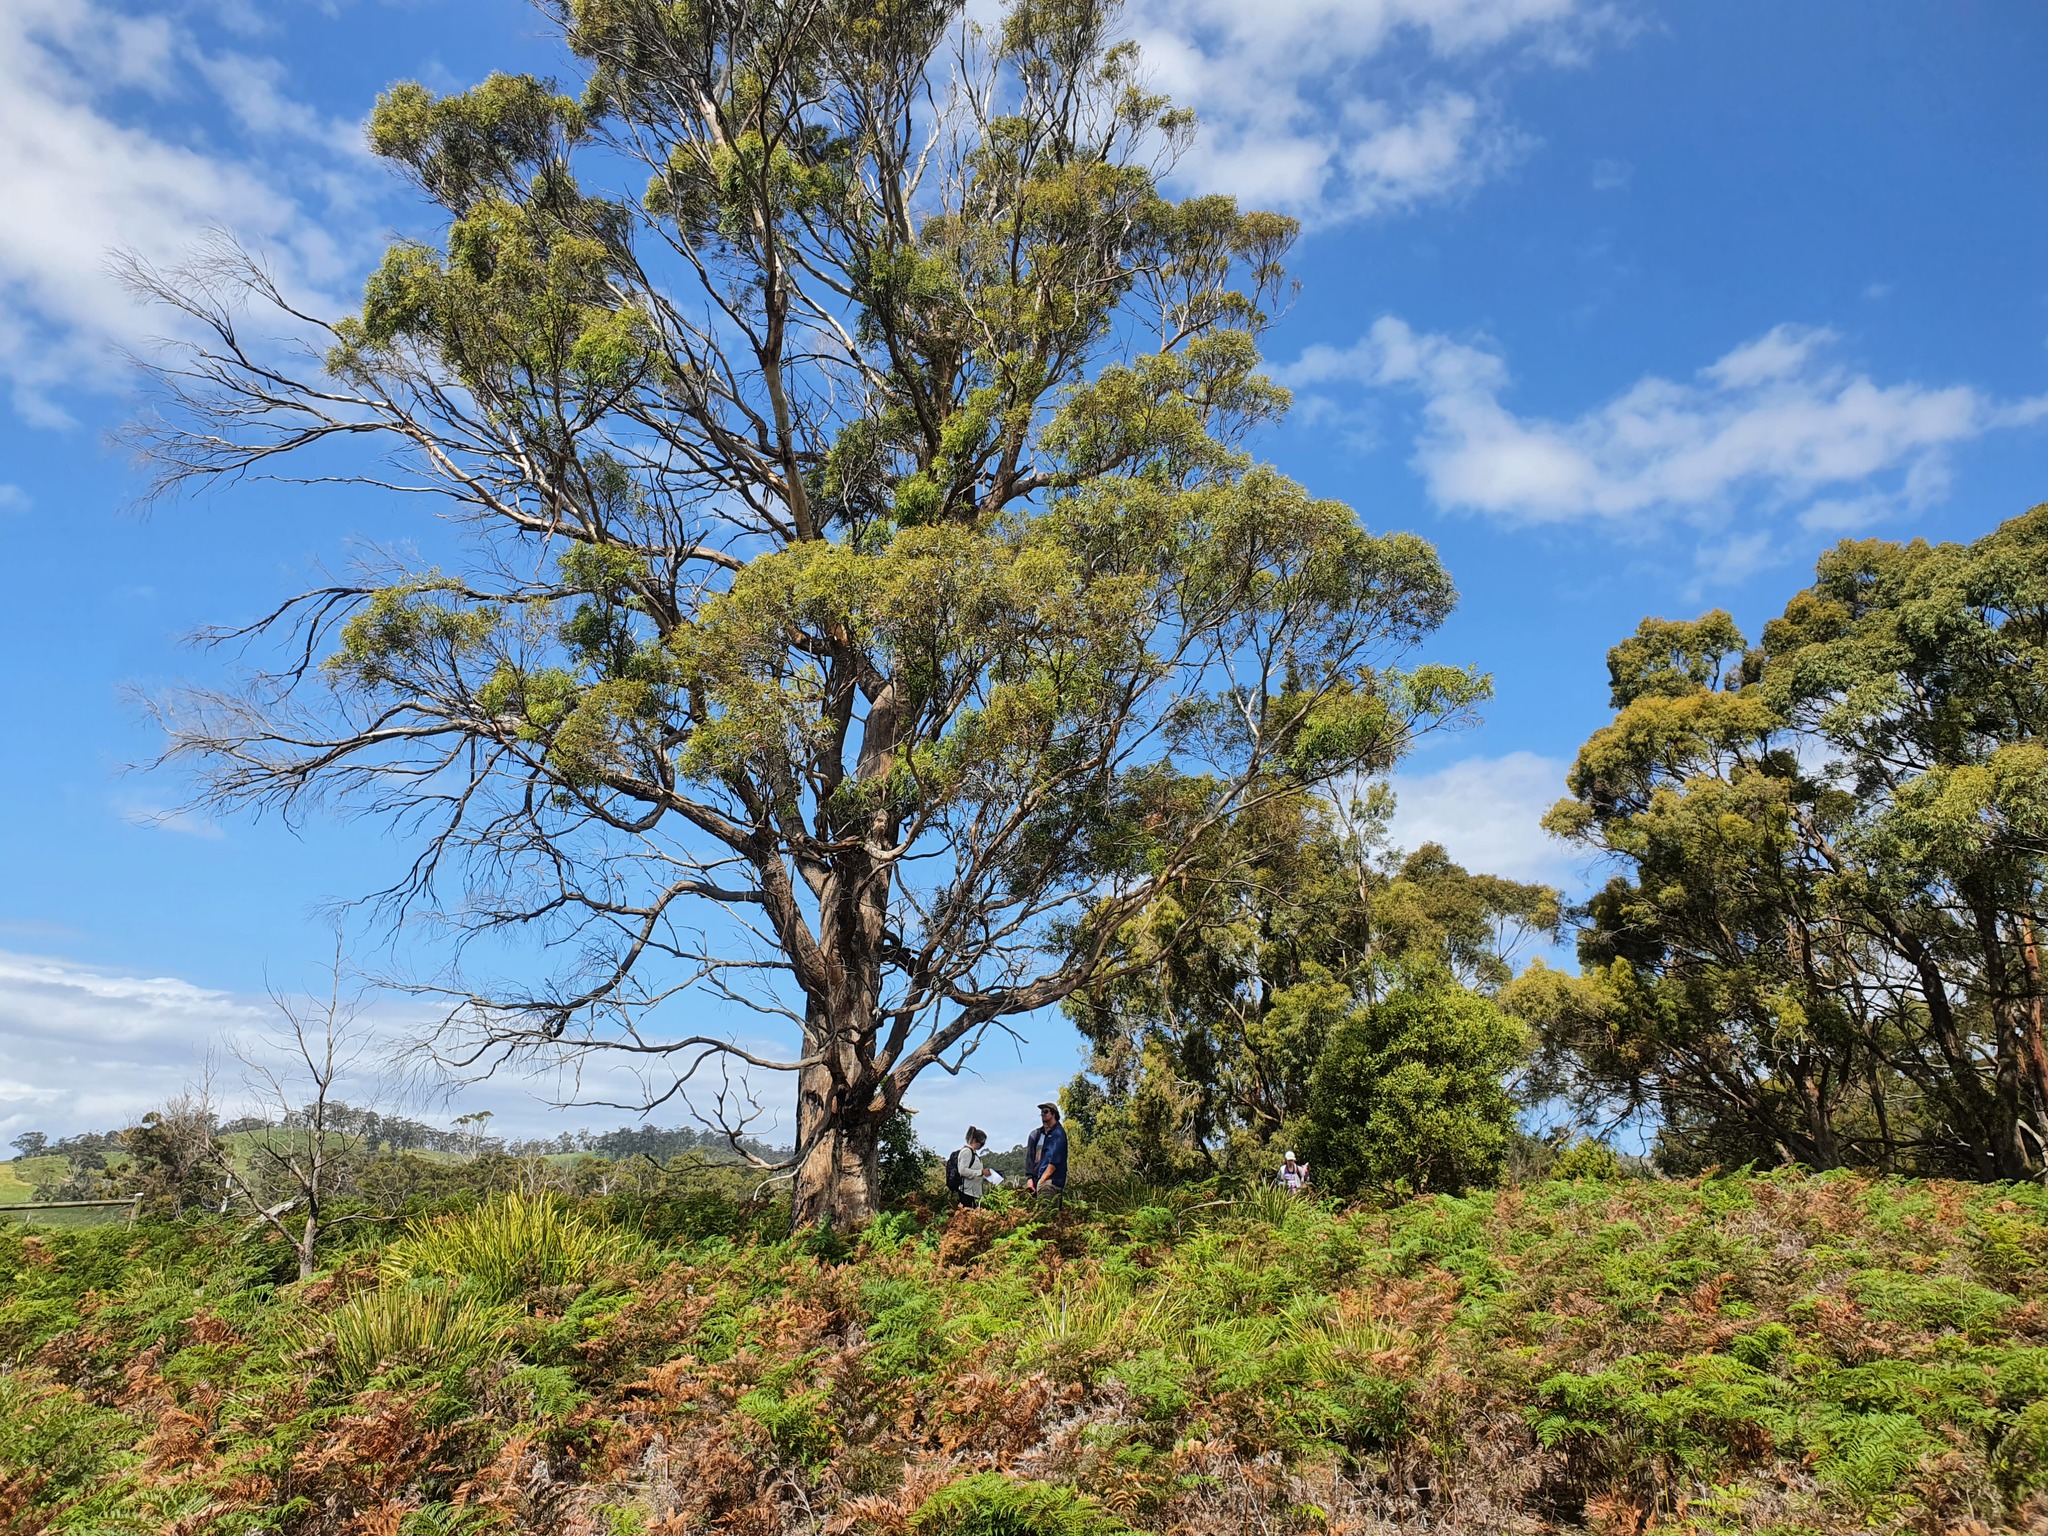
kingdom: Plantae
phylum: Tracheophyta
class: Magnoliopsida
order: Myrtales
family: Myrtaceae
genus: Eucalyptus
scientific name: Eucalyptus amygdalina
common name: Black peppermint
